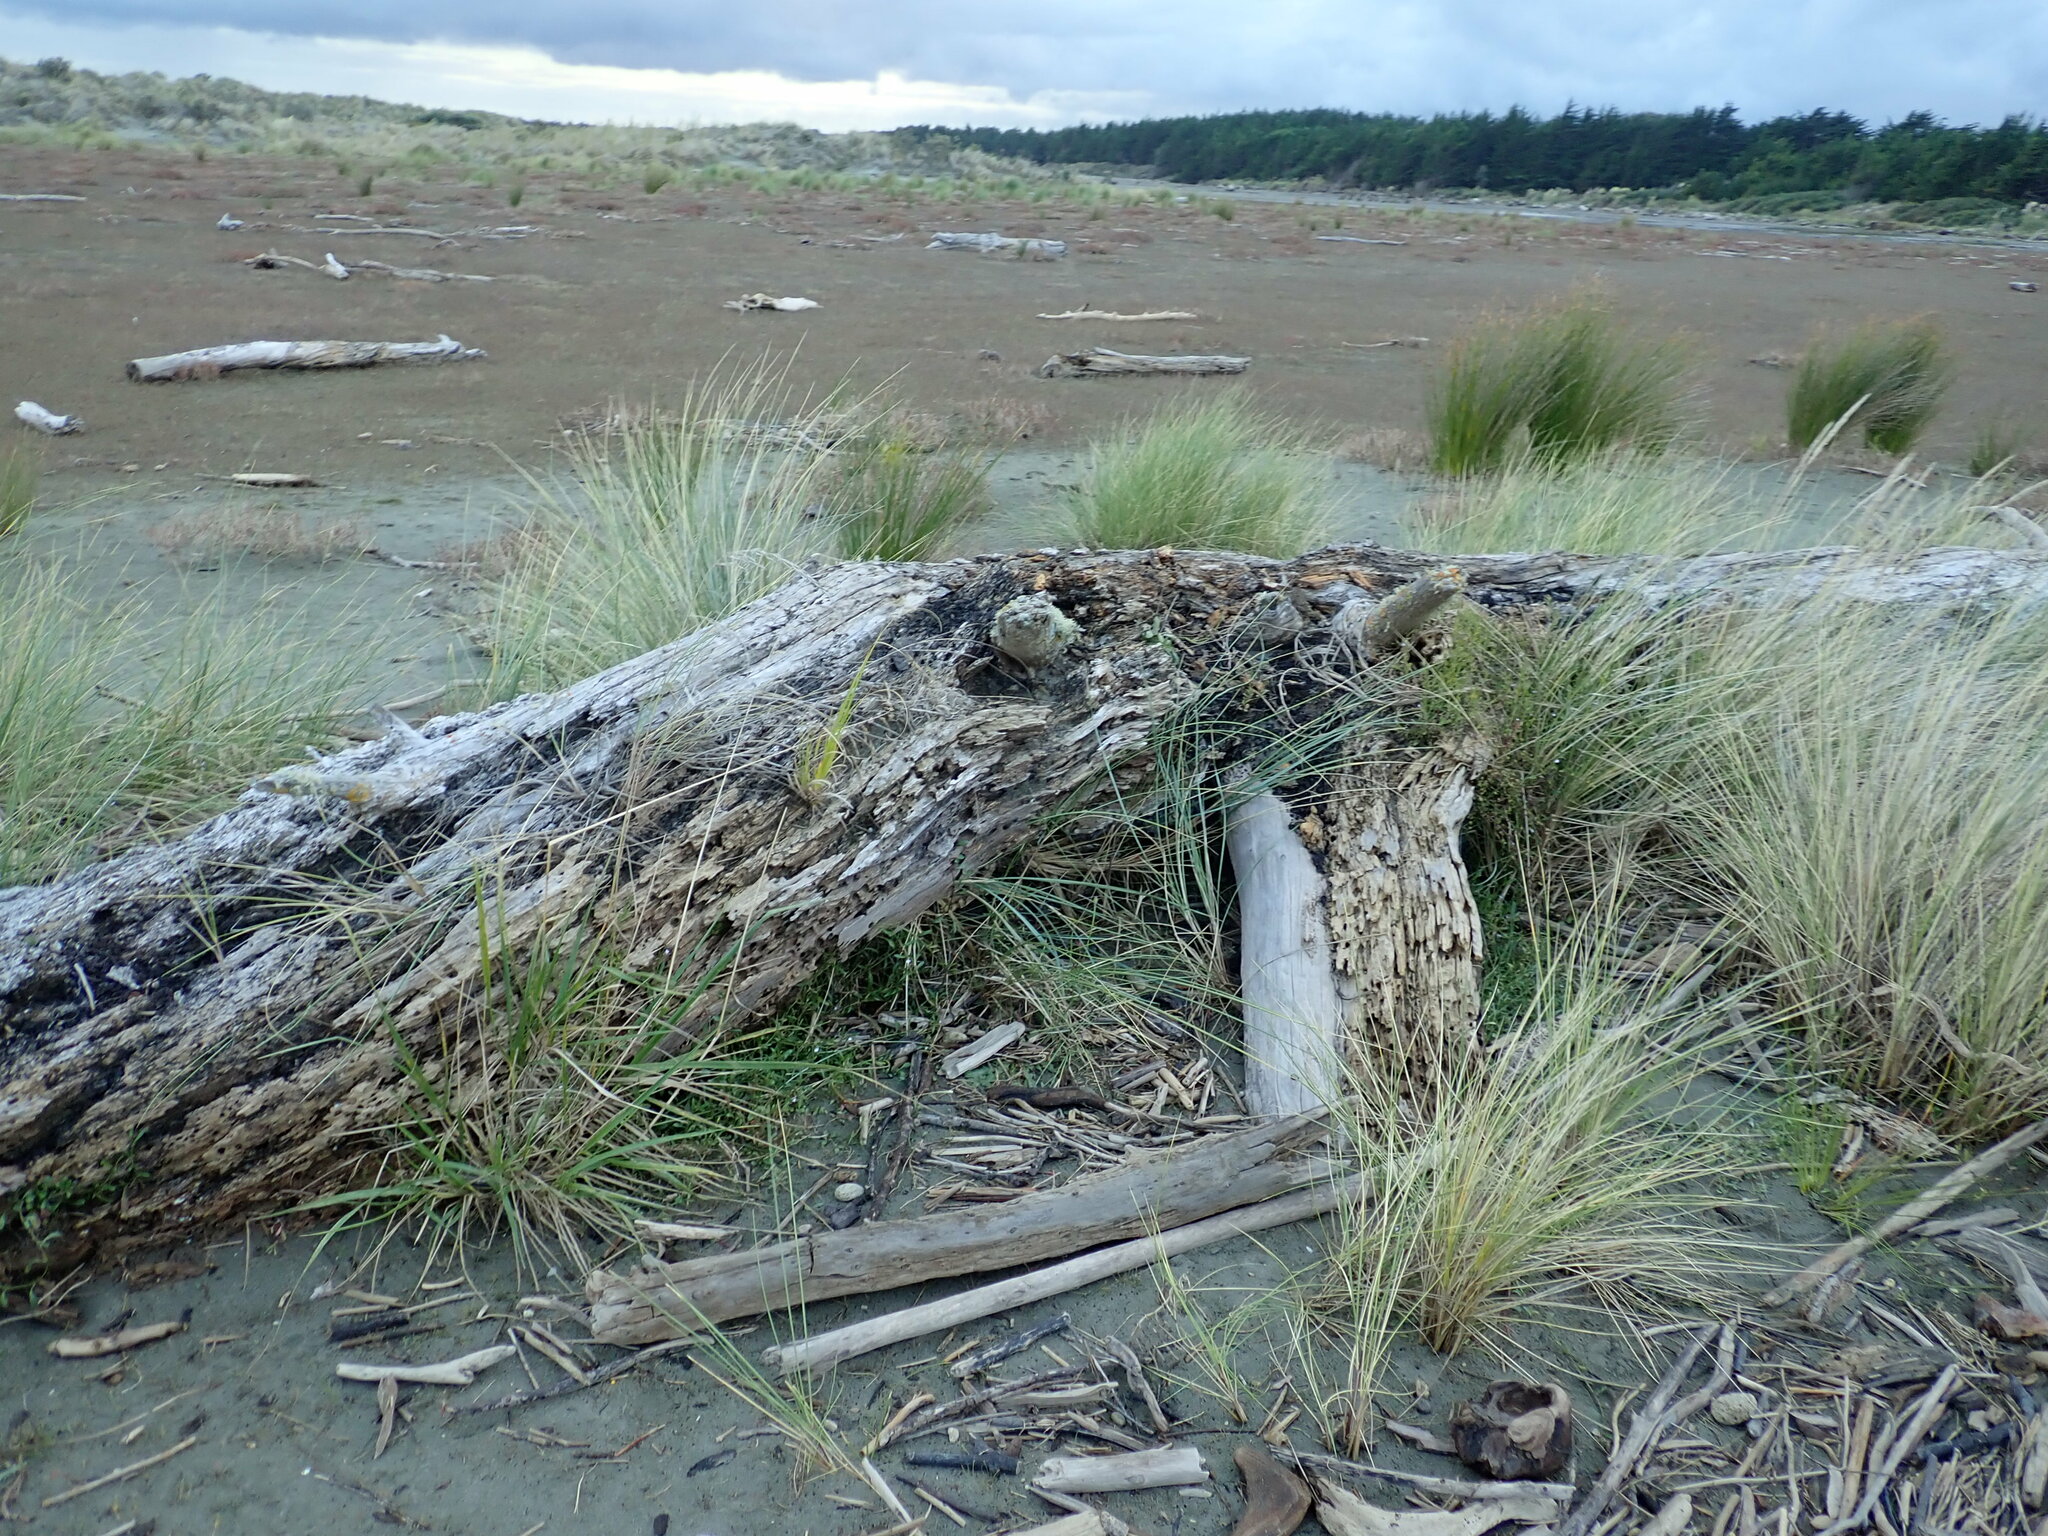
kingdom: Plantae
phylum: Tracheophyta
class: Magnoliopsida
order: Caryophyllales
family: Polygonaceae
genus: Muehlenbeckia
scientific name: Muehlenbeckia complexa
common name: Wireplant
